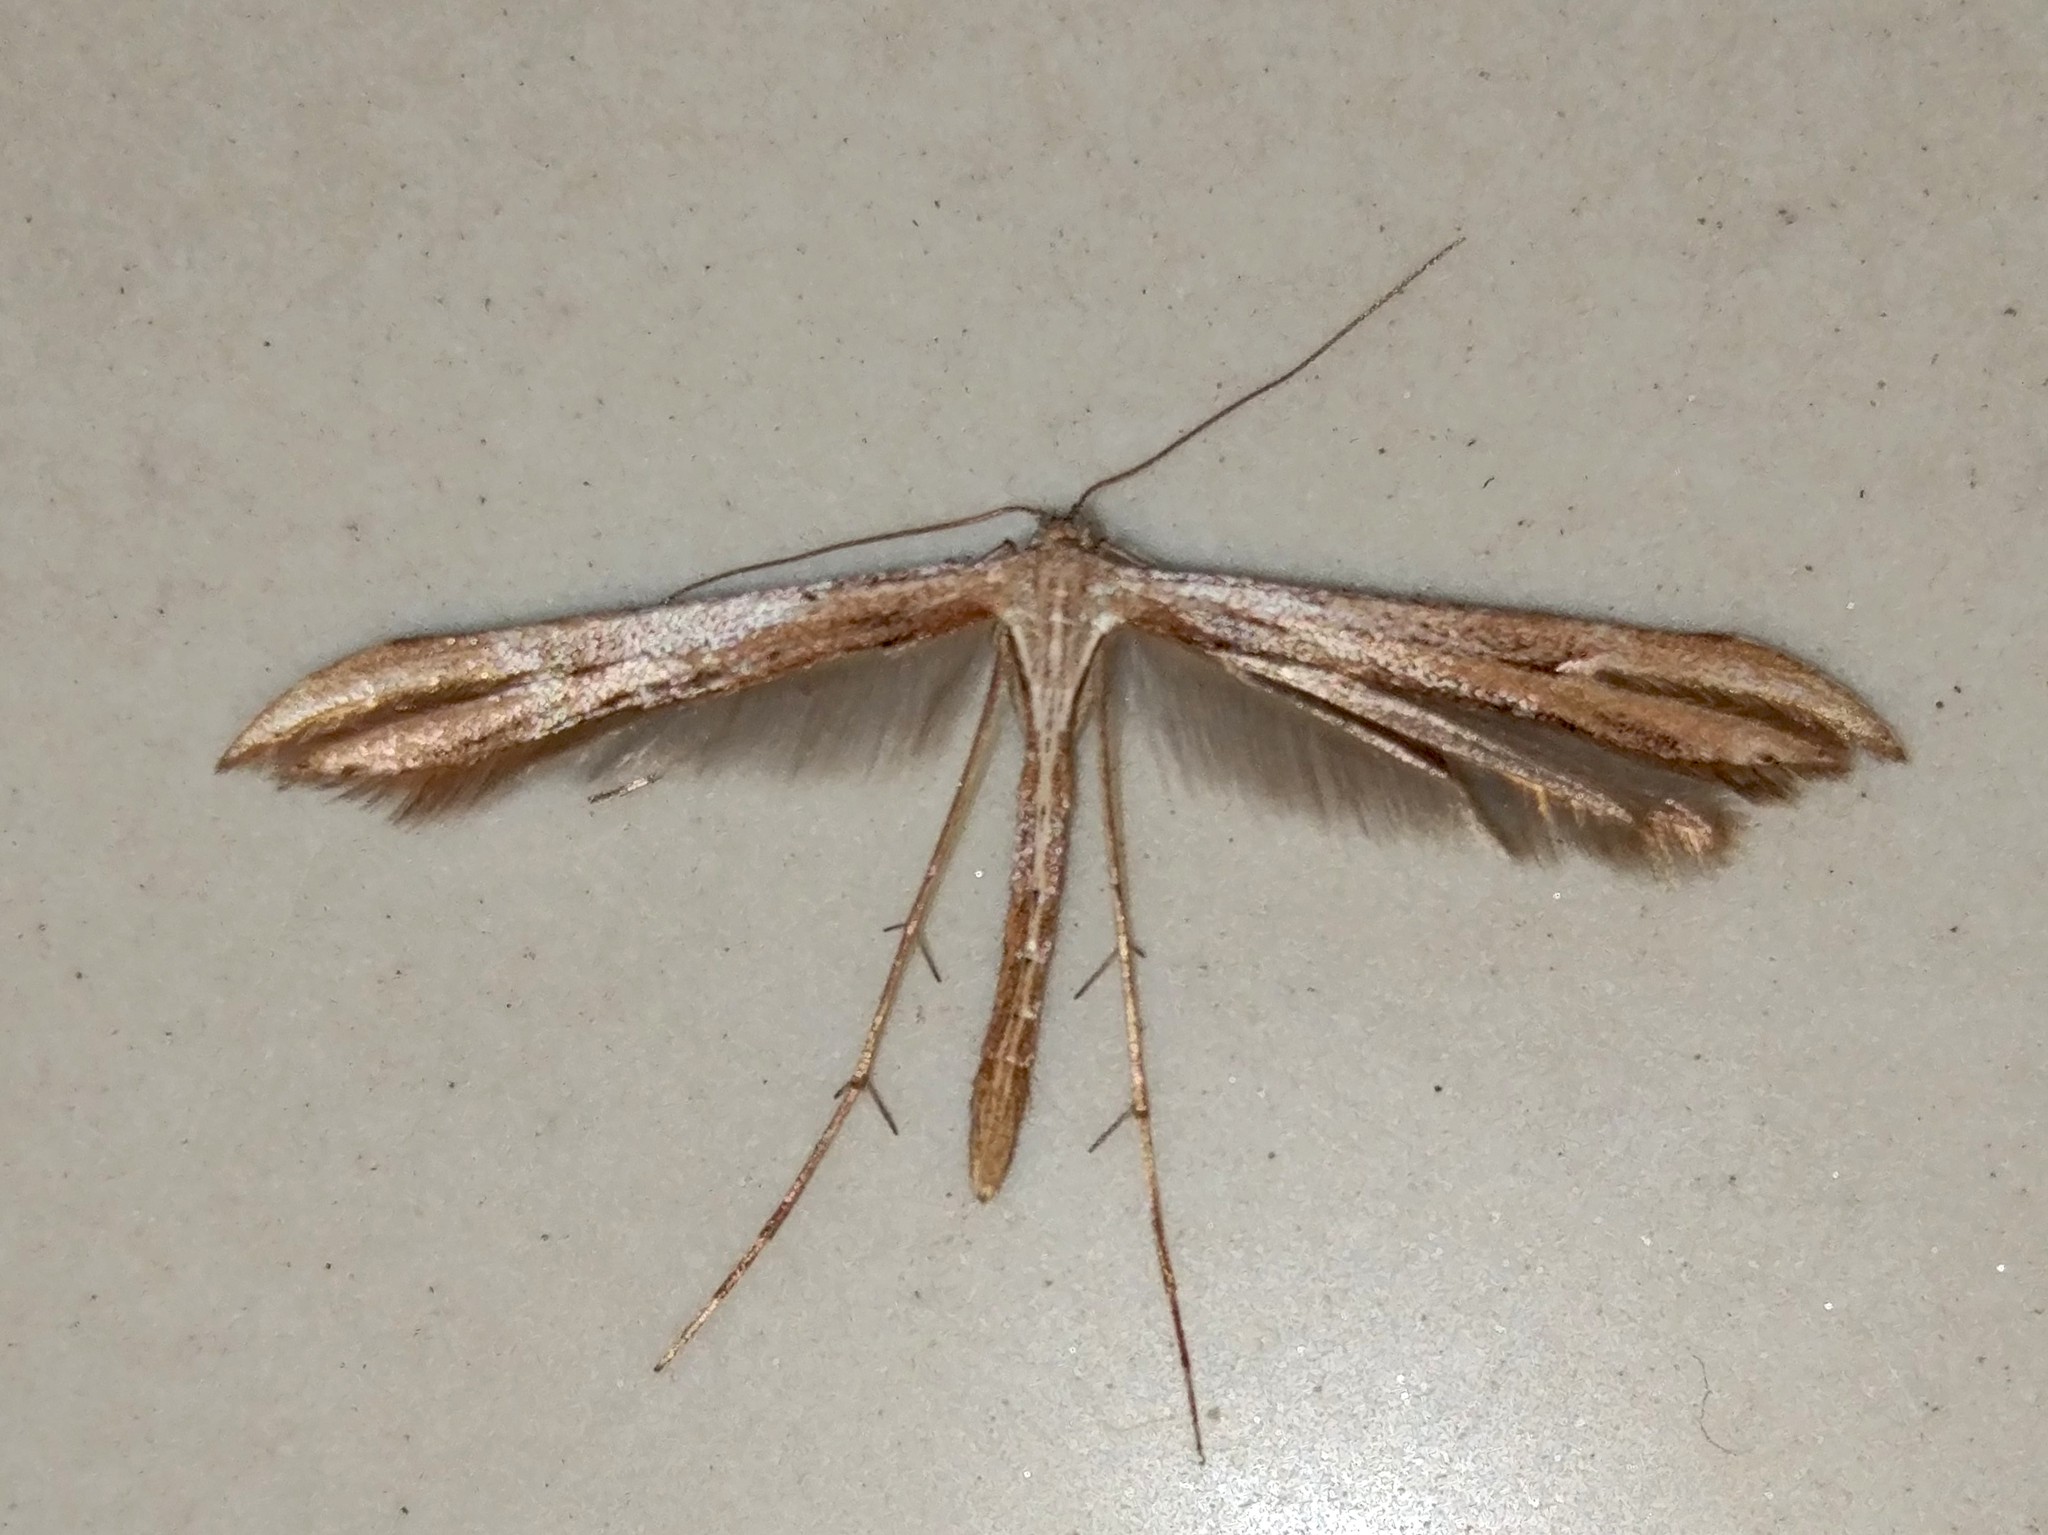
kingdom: Animalia
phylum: Arthropoda
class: Insecta
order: Lepidoptera
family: Pterophoridae
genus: Emmelina
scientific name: Emmelina monodactyla
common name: Common plume
